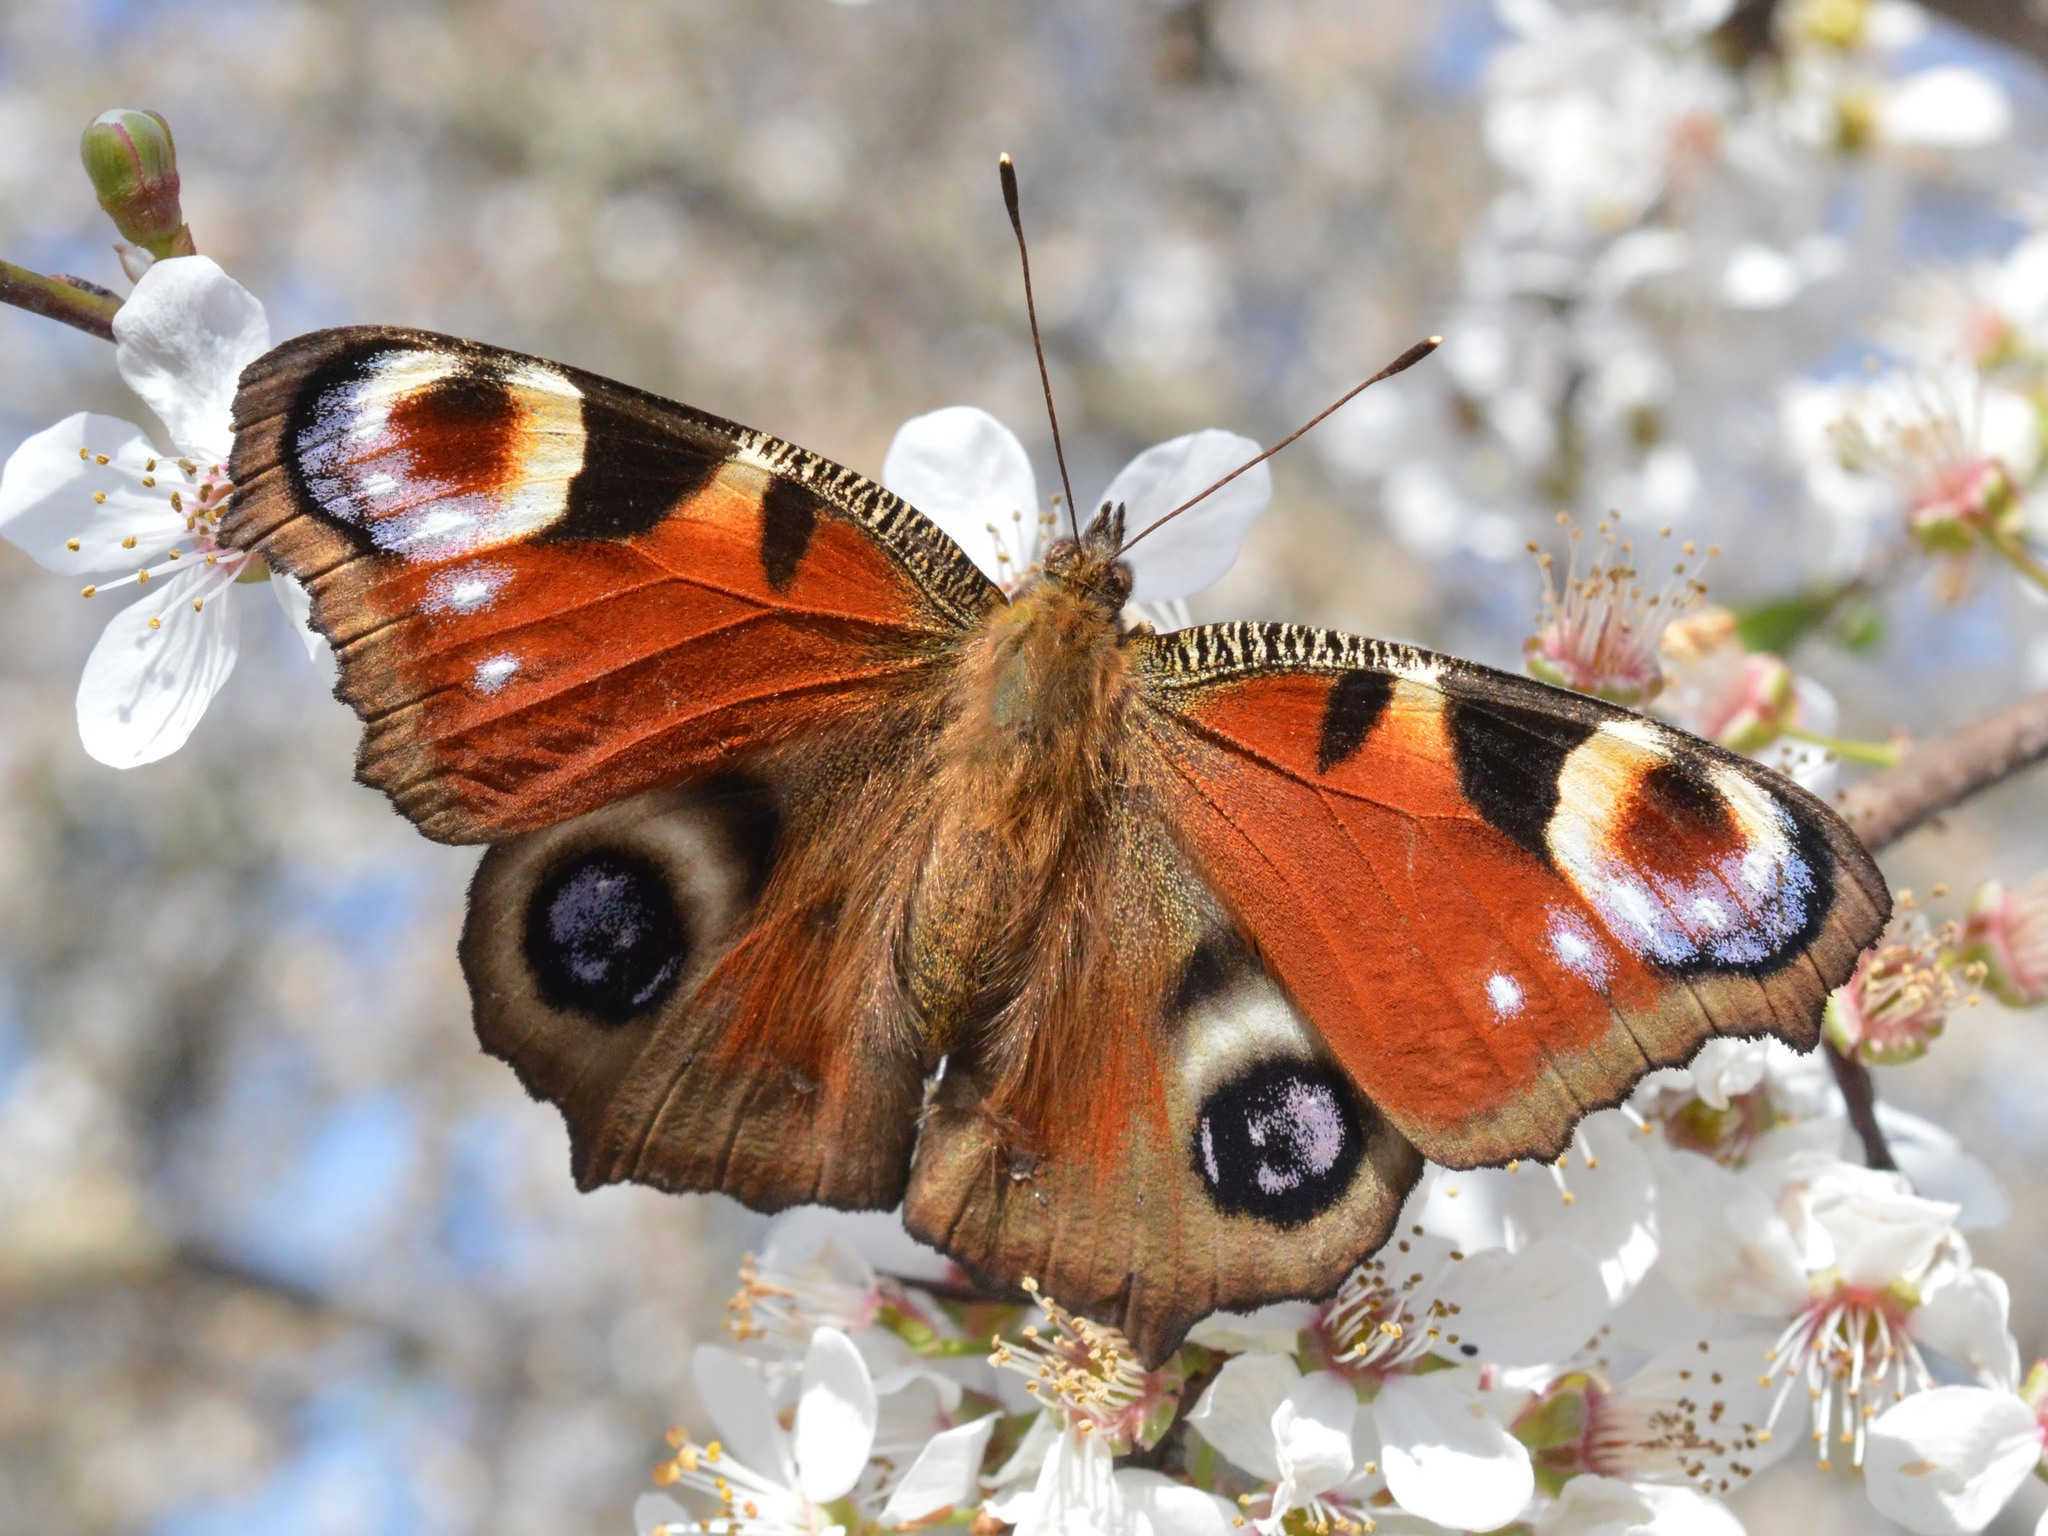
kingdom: Animalia
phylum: Arthropoda
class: Insecta
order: Lepidoptera
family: Nymphalidae
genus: Aglais
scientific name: Aglais io
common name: Peacock
